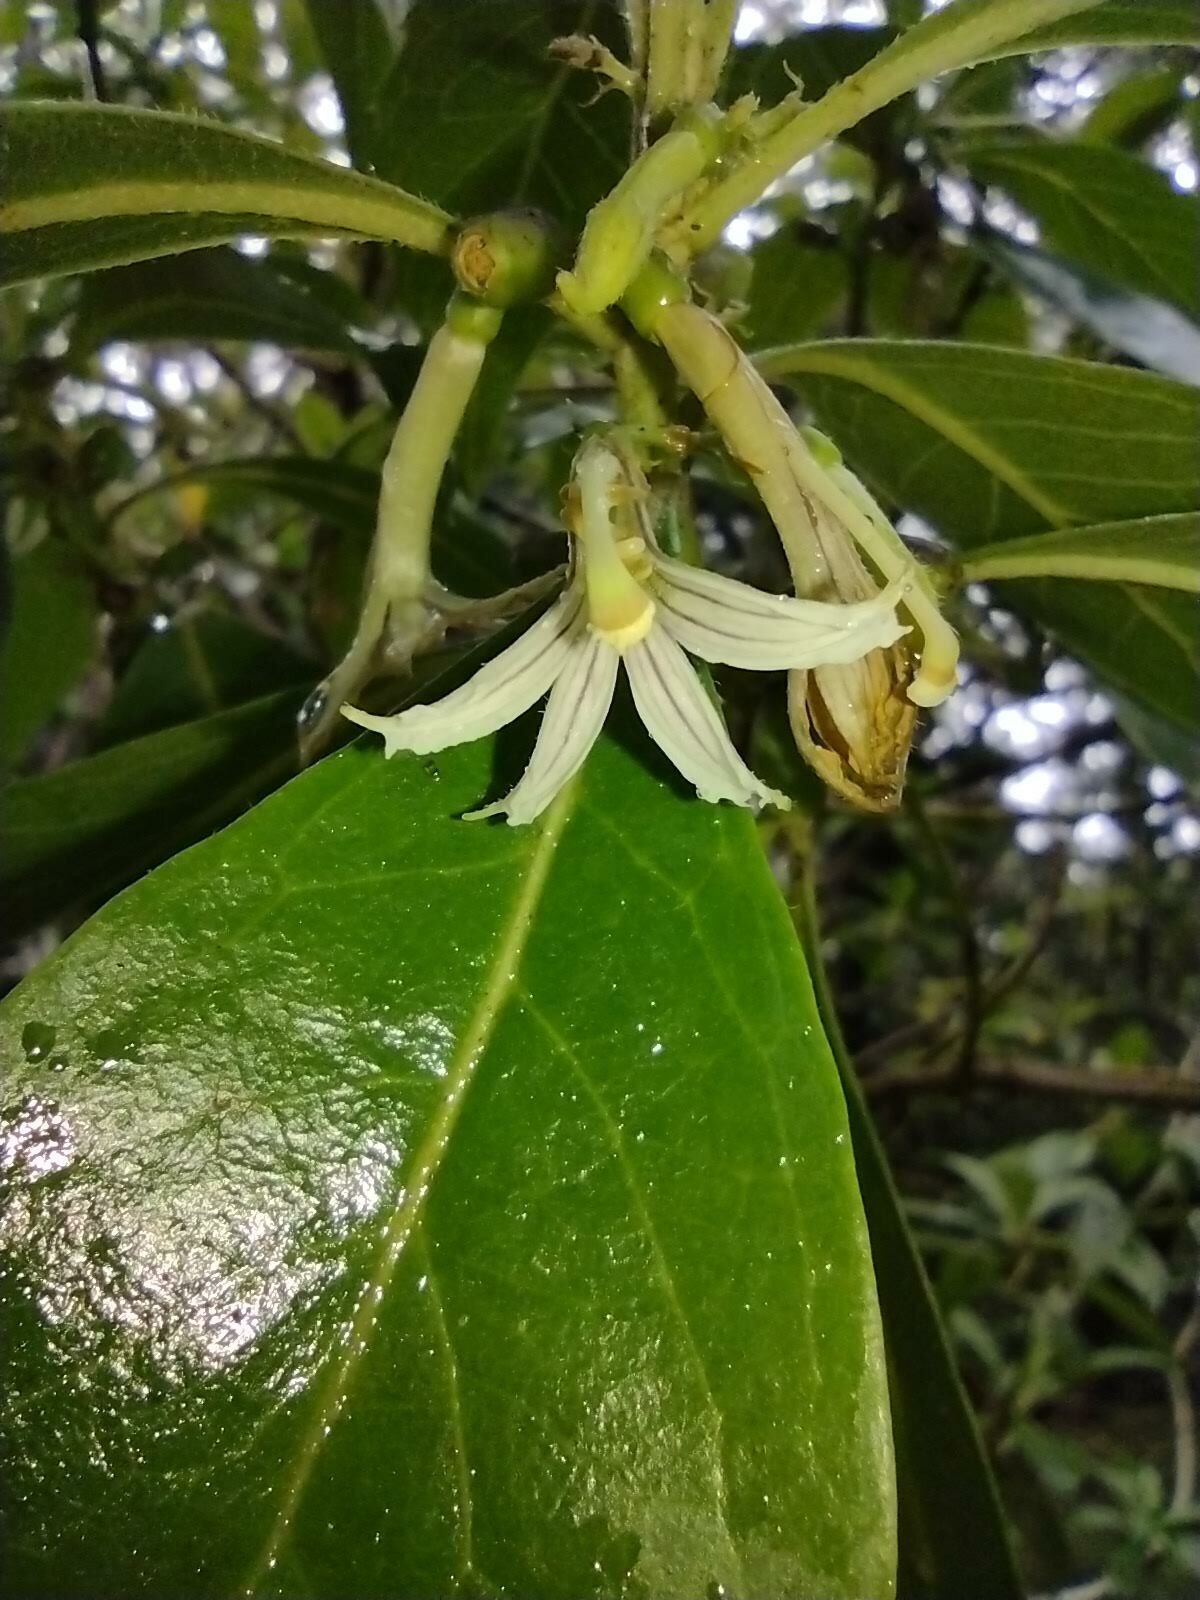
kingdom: Plantae
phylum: Tracheophyta
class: Magnoliopsida
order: Asterales
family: Goodeniaceae
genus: Scaevola
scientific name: Scaevola procera
